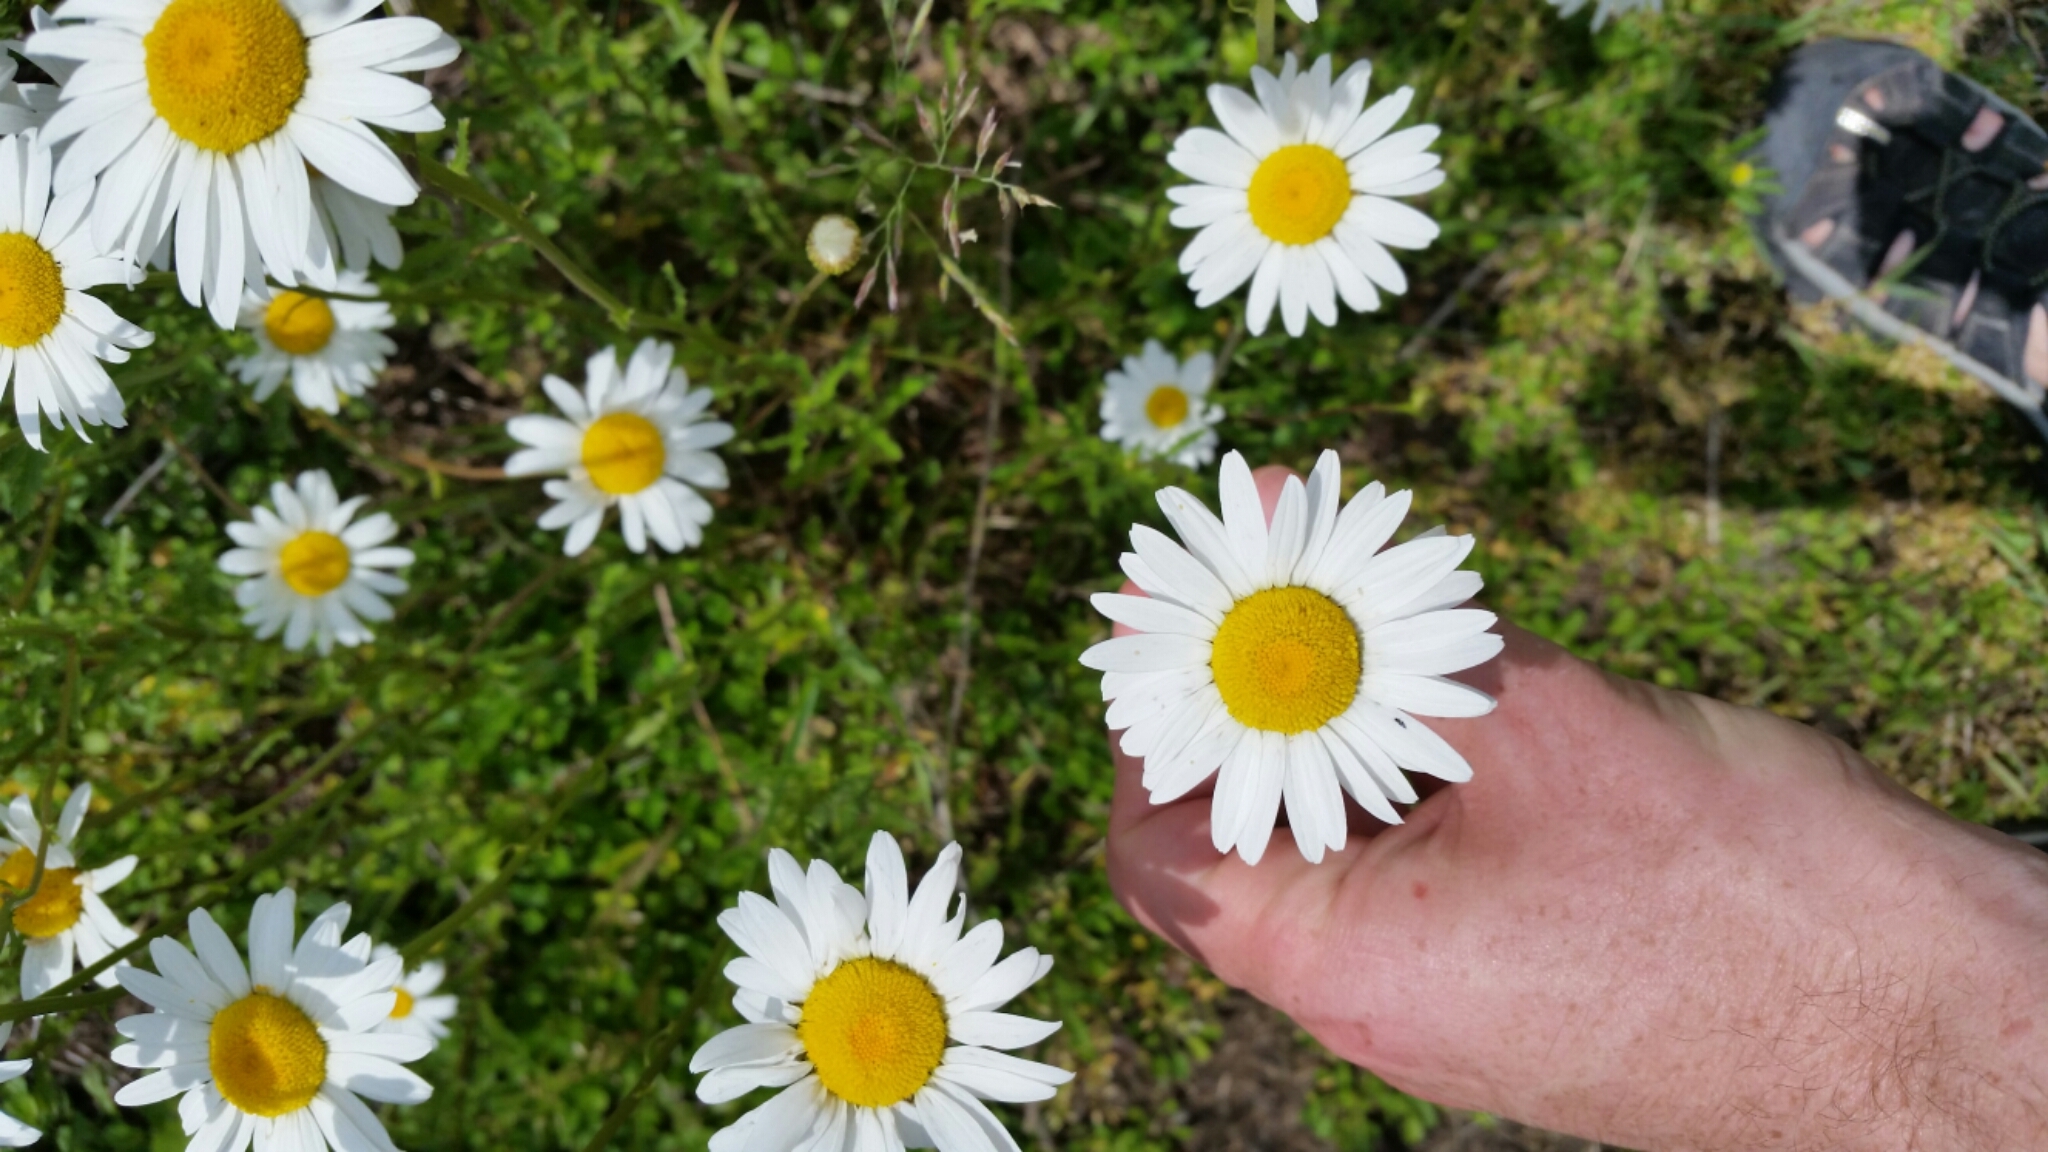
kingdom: Plantae
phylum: Tracheophyta
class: Magnoliopsida
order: Asterales
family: Asteraceae
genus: Leucanthemum
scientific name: Leucanthemum vulgare
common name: Oxeye daisy
